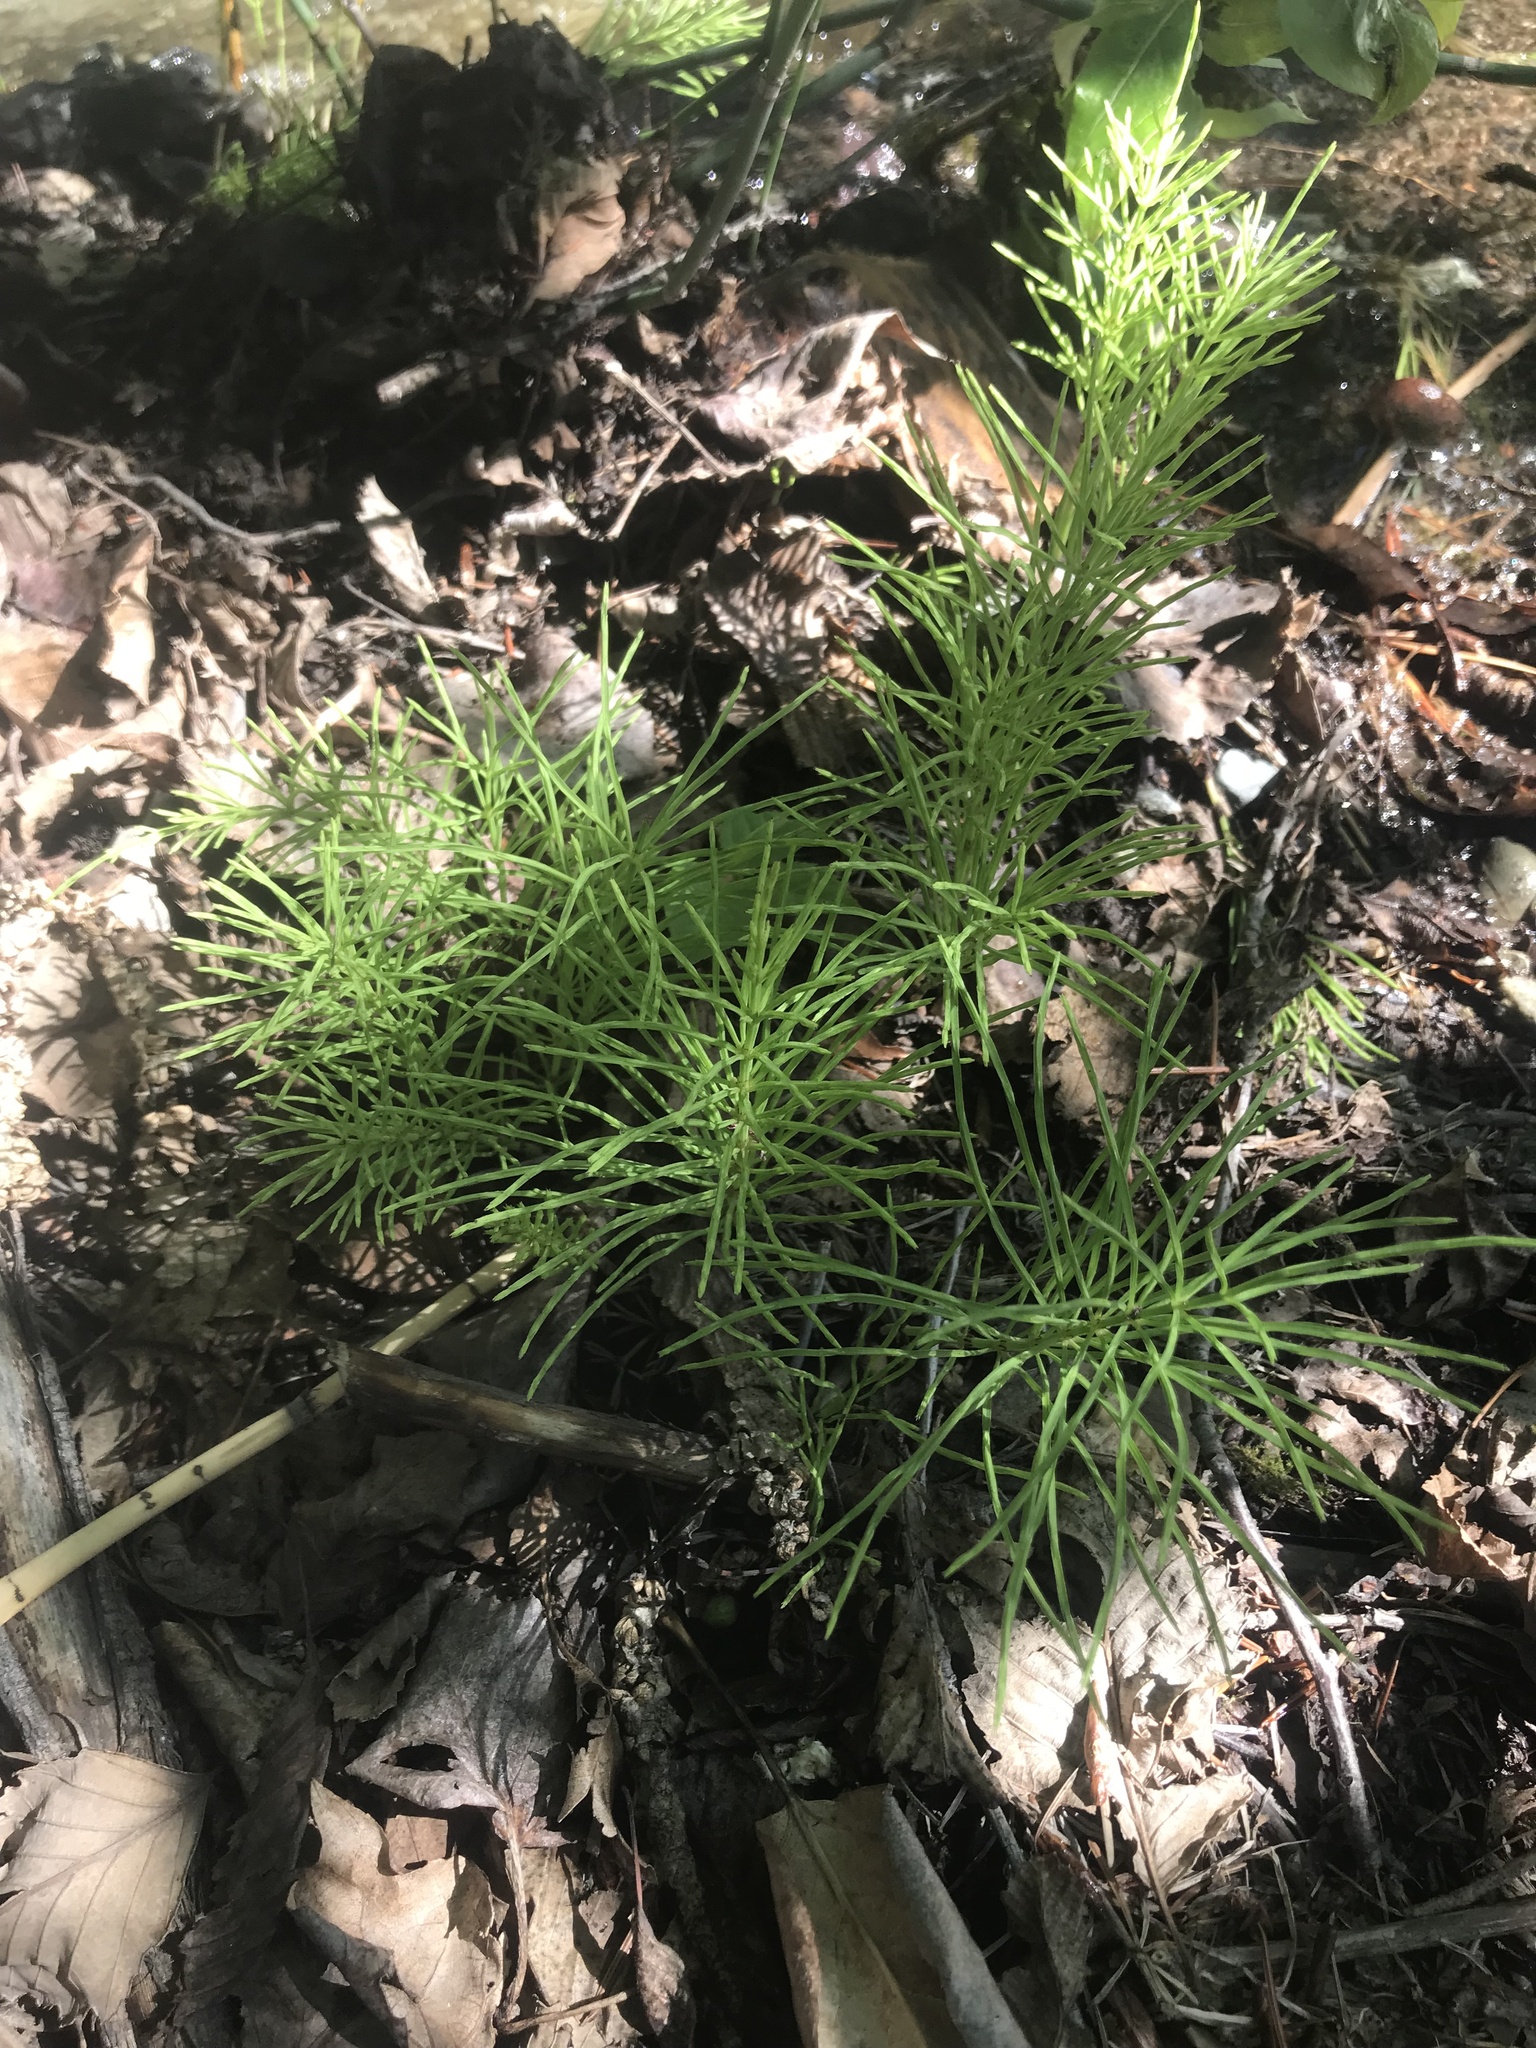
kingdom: Plantae
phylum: Tracheophyta
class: Polypodiopsida
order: Equisetales
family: Equisetaceae
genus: Equisetum
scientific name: Equisetum arvense
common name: Field horsetail
